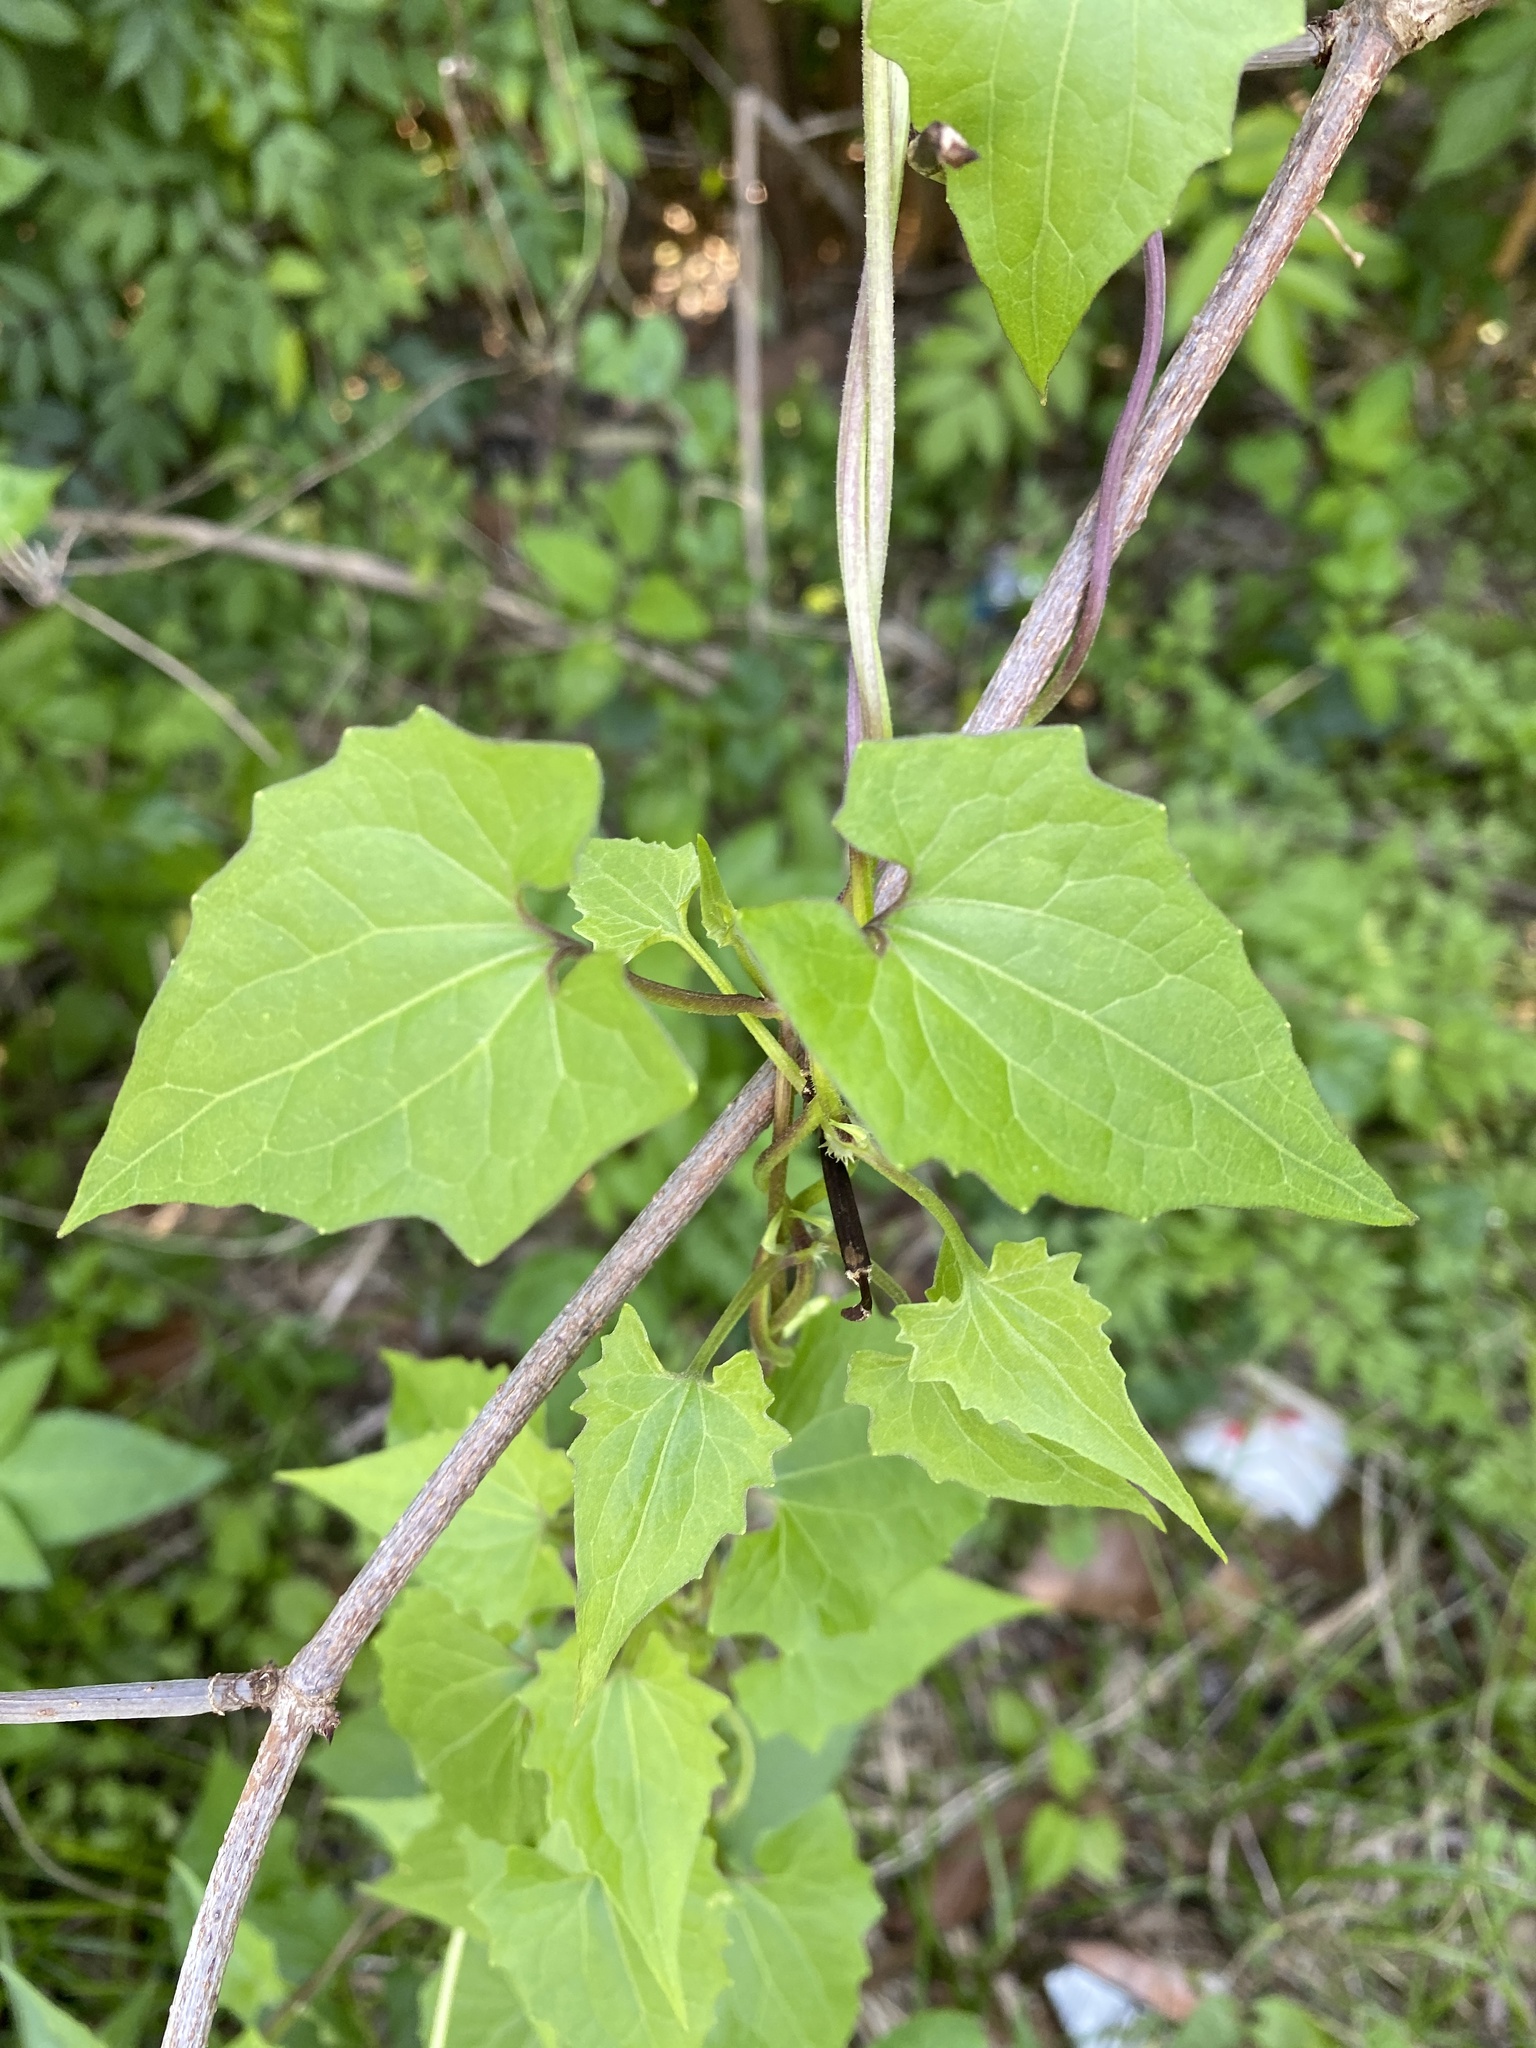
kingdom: Plantae
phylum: Tracheophyta
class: Magnoliopsida
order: Asterales
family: Asteraceae
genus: Mikania
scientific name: Mikania scandens
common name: Climbing hempvine
